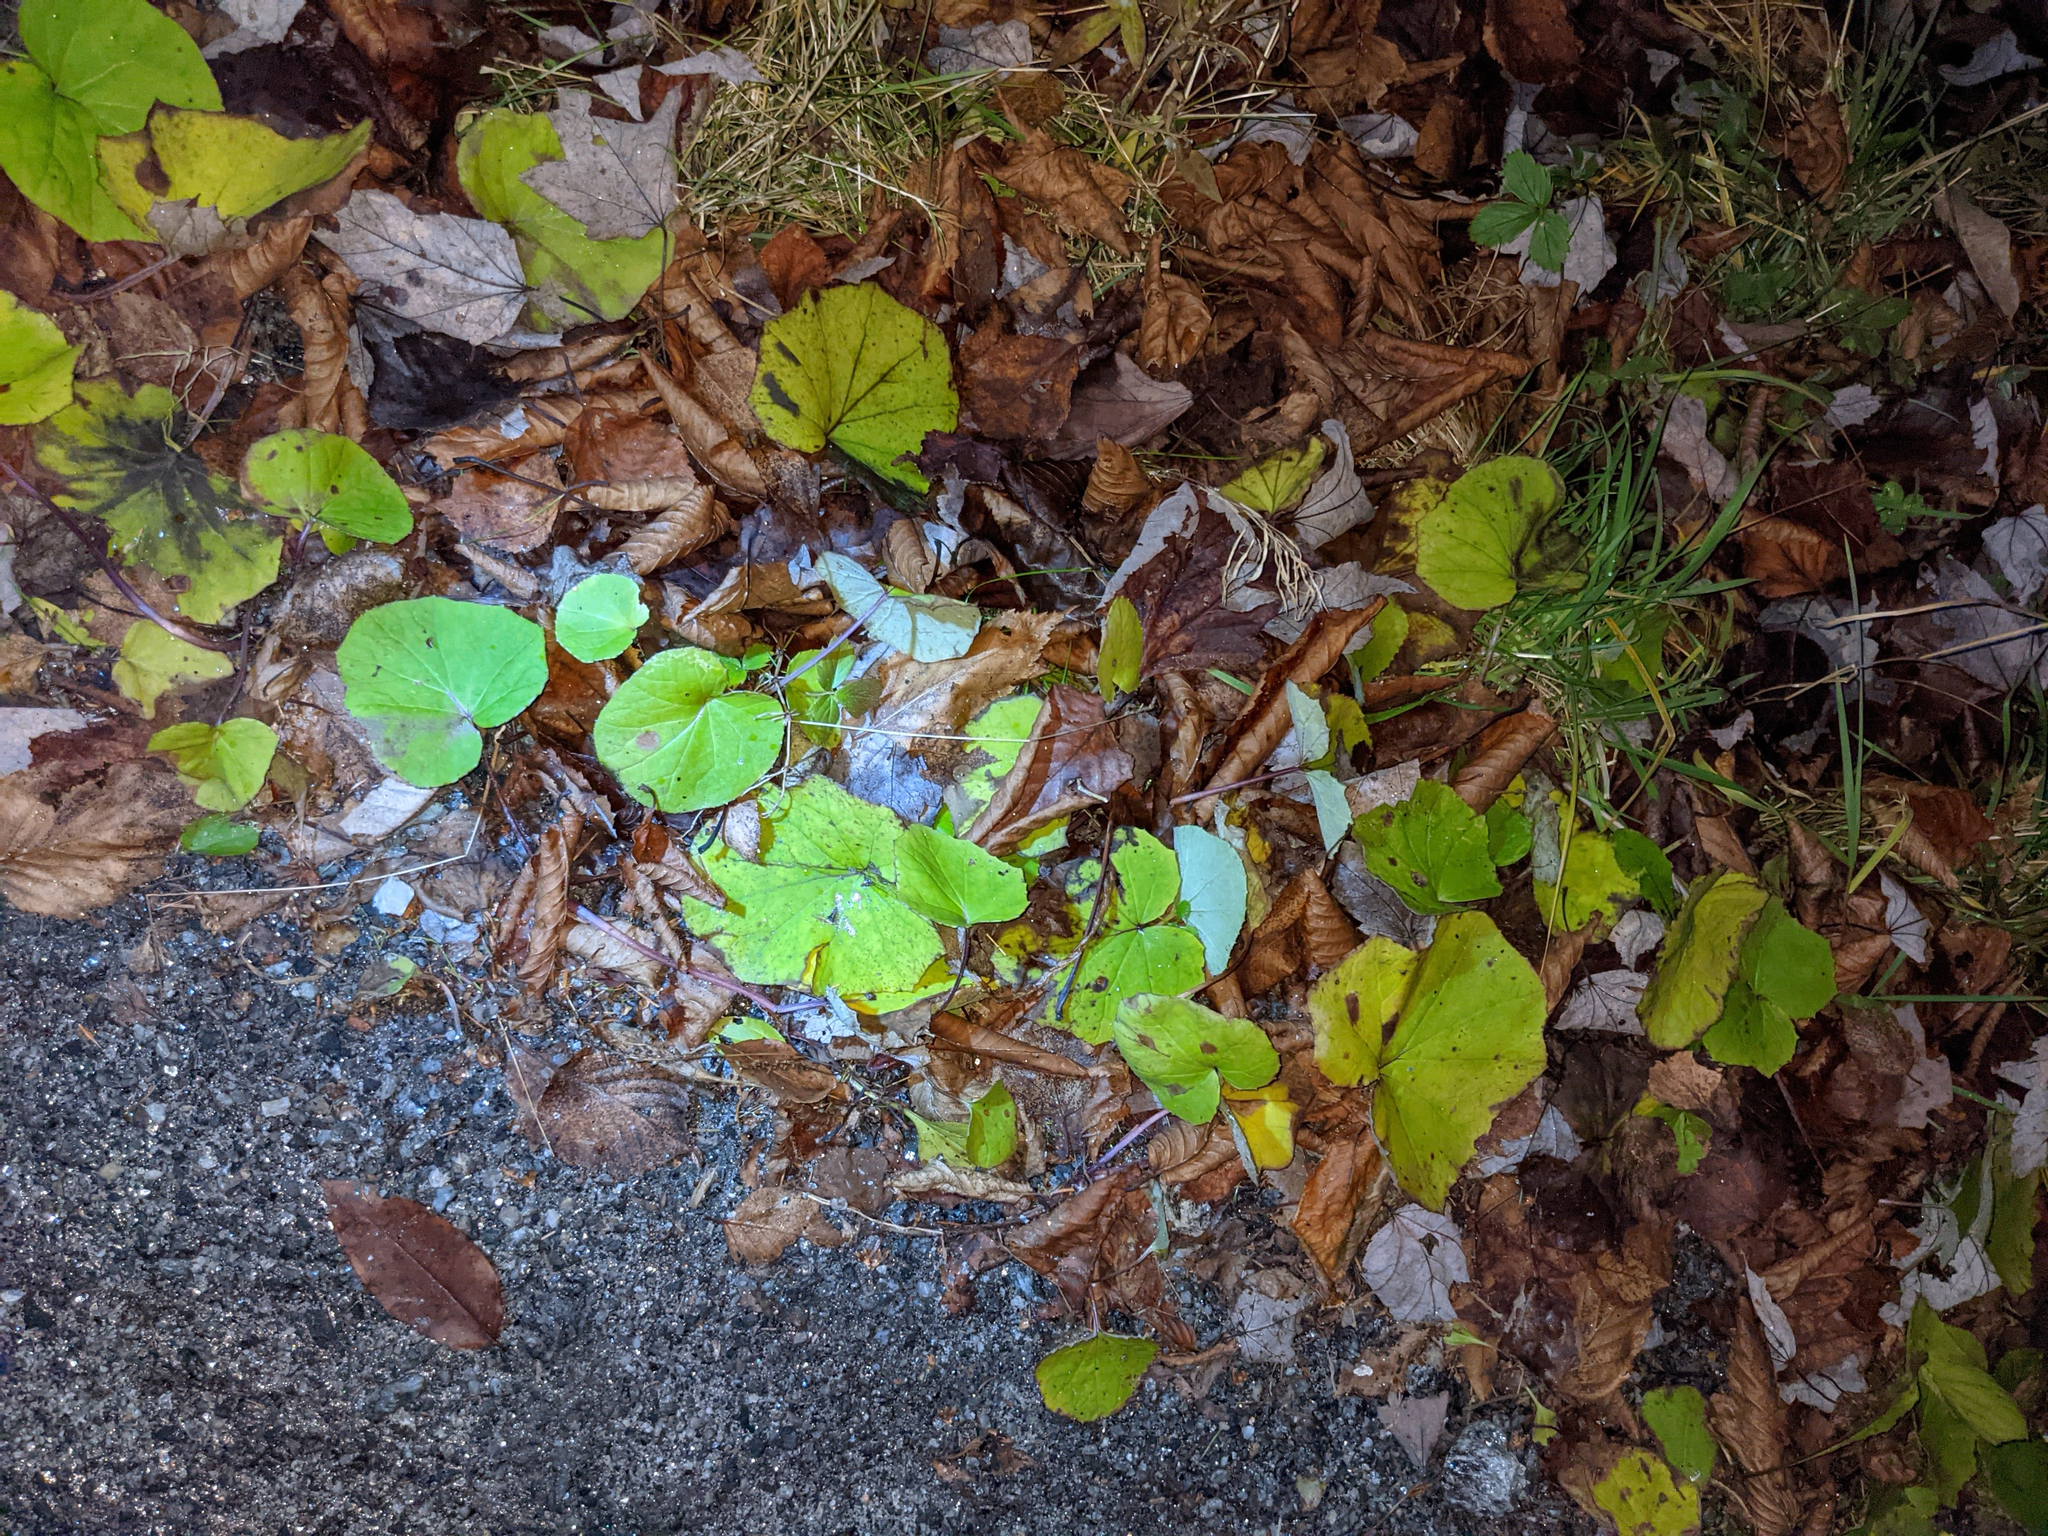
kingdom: Plantae
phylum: Tracheophyta
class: Magnoliopsida
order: Asterales
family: Asteraceae
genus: Tussilago
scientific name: Tussilago farfara
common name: Coltsfoot
